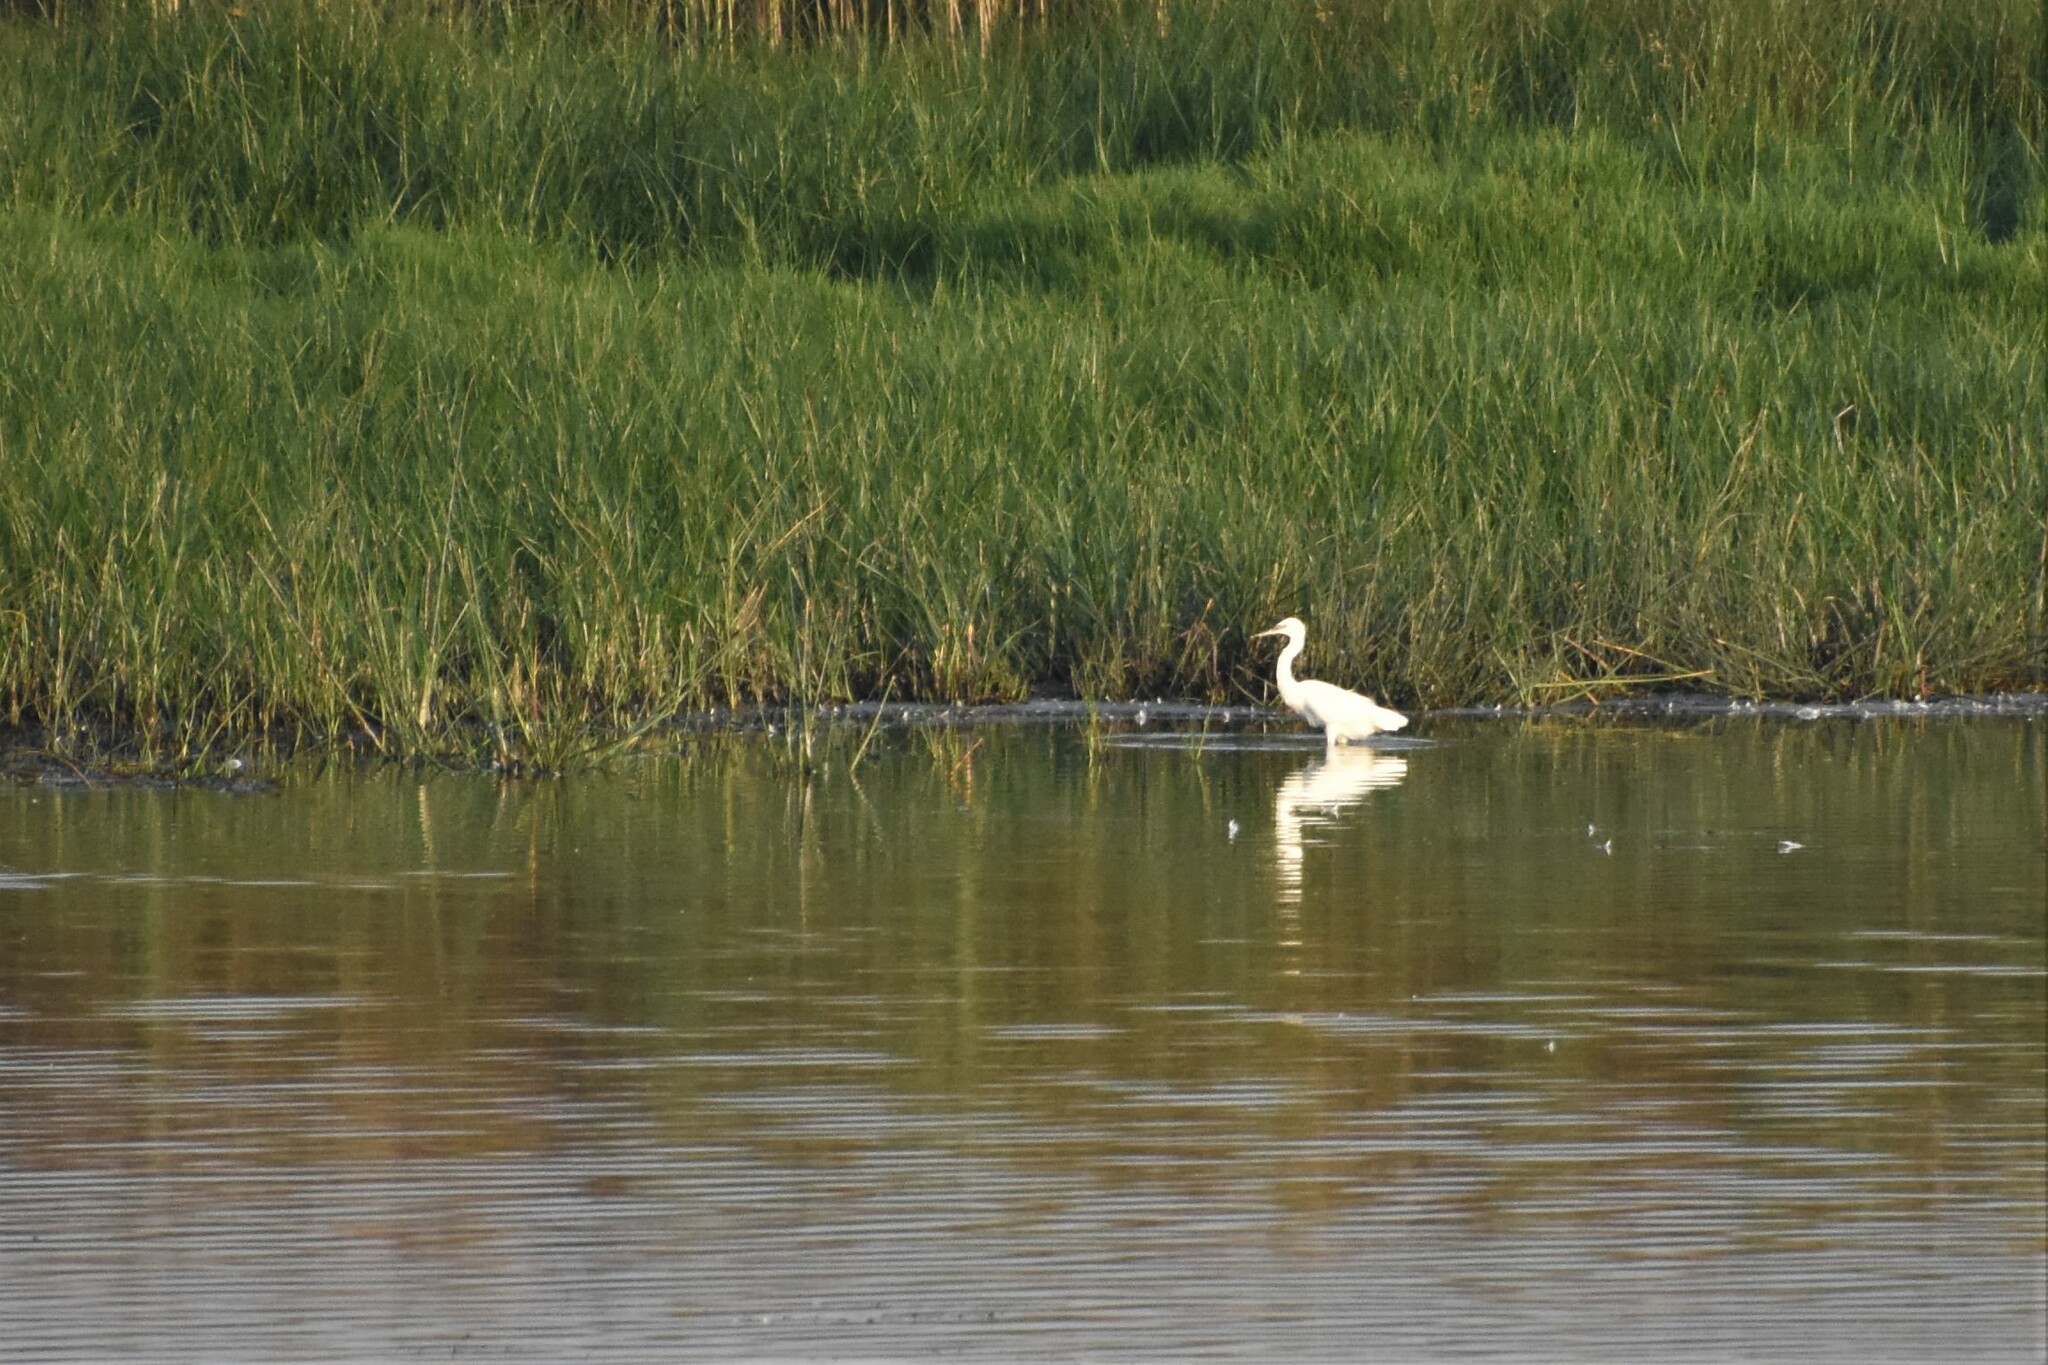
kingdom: Animalia
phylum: Chordata
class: Aves
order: Pelecaniformes
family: Ardeidae
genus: Ardea
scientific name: Ardea alba
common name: Great egret
